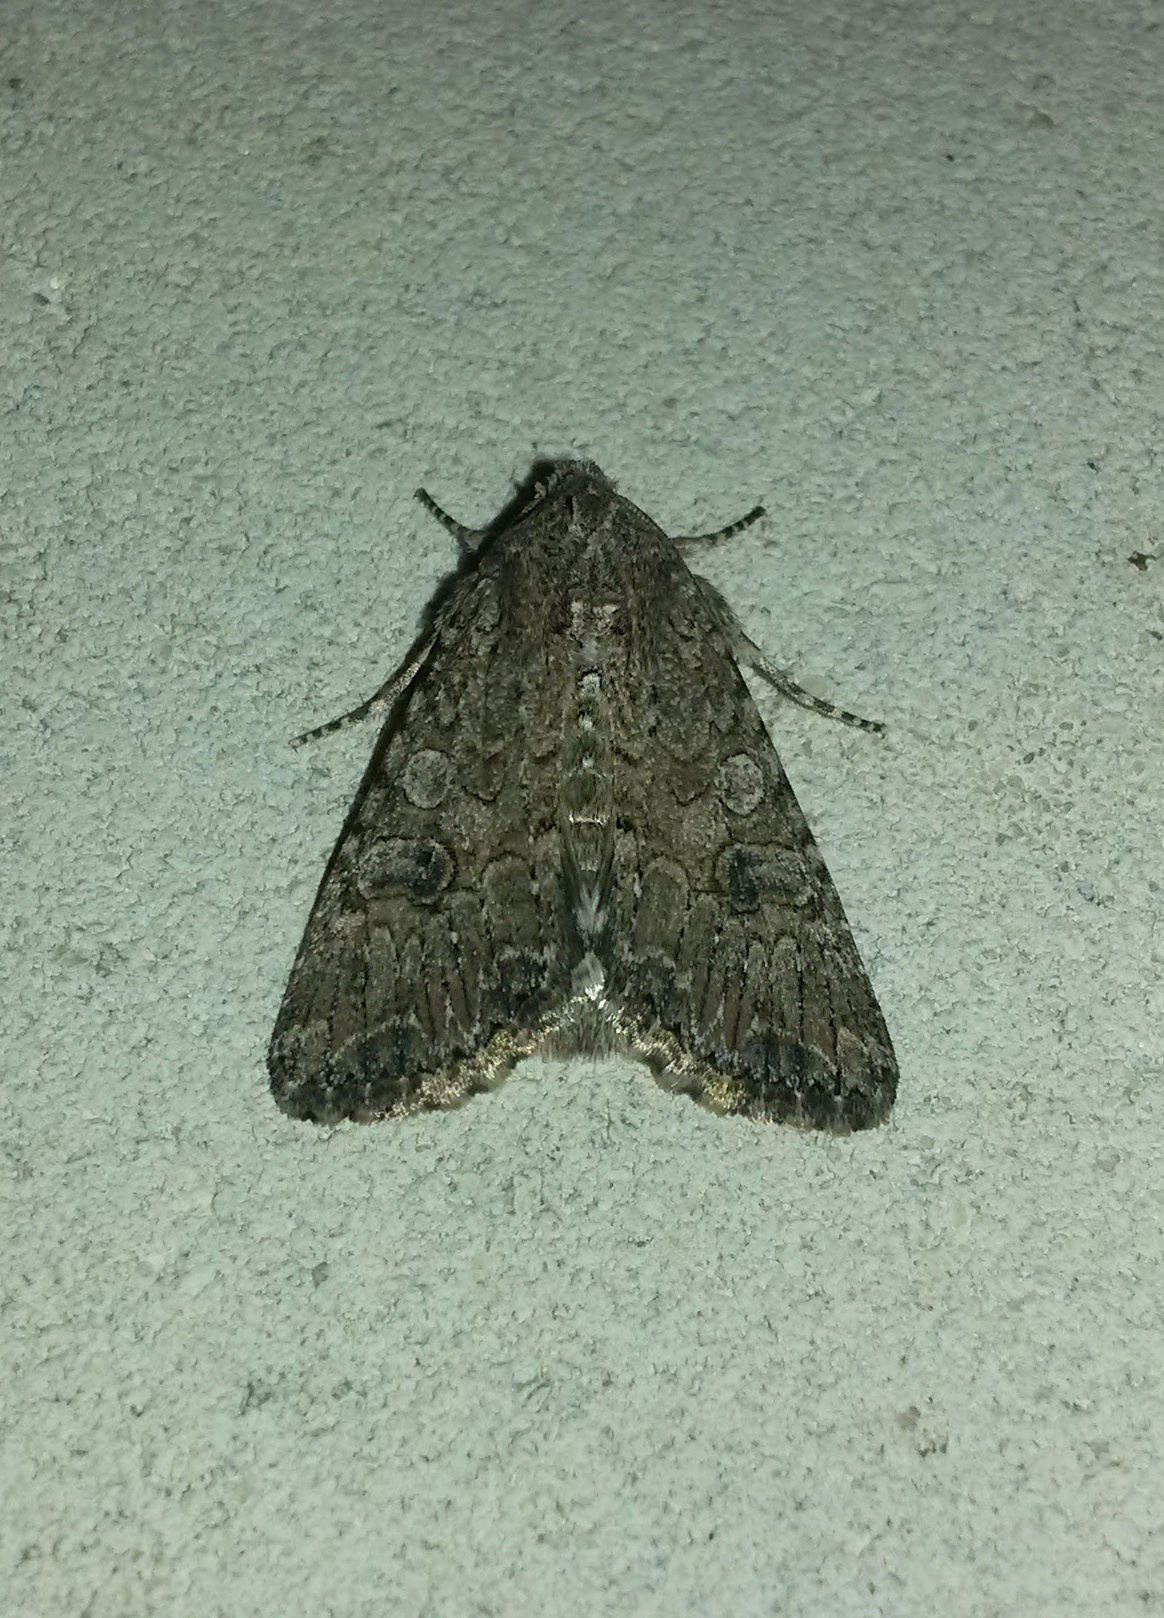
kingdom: Animalia
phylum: Arthropoda
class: Insecta
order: Lepidoptera
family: Noctuidae
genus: Anarta
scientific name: Anarta trifolii
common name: Clover cutworm moth
